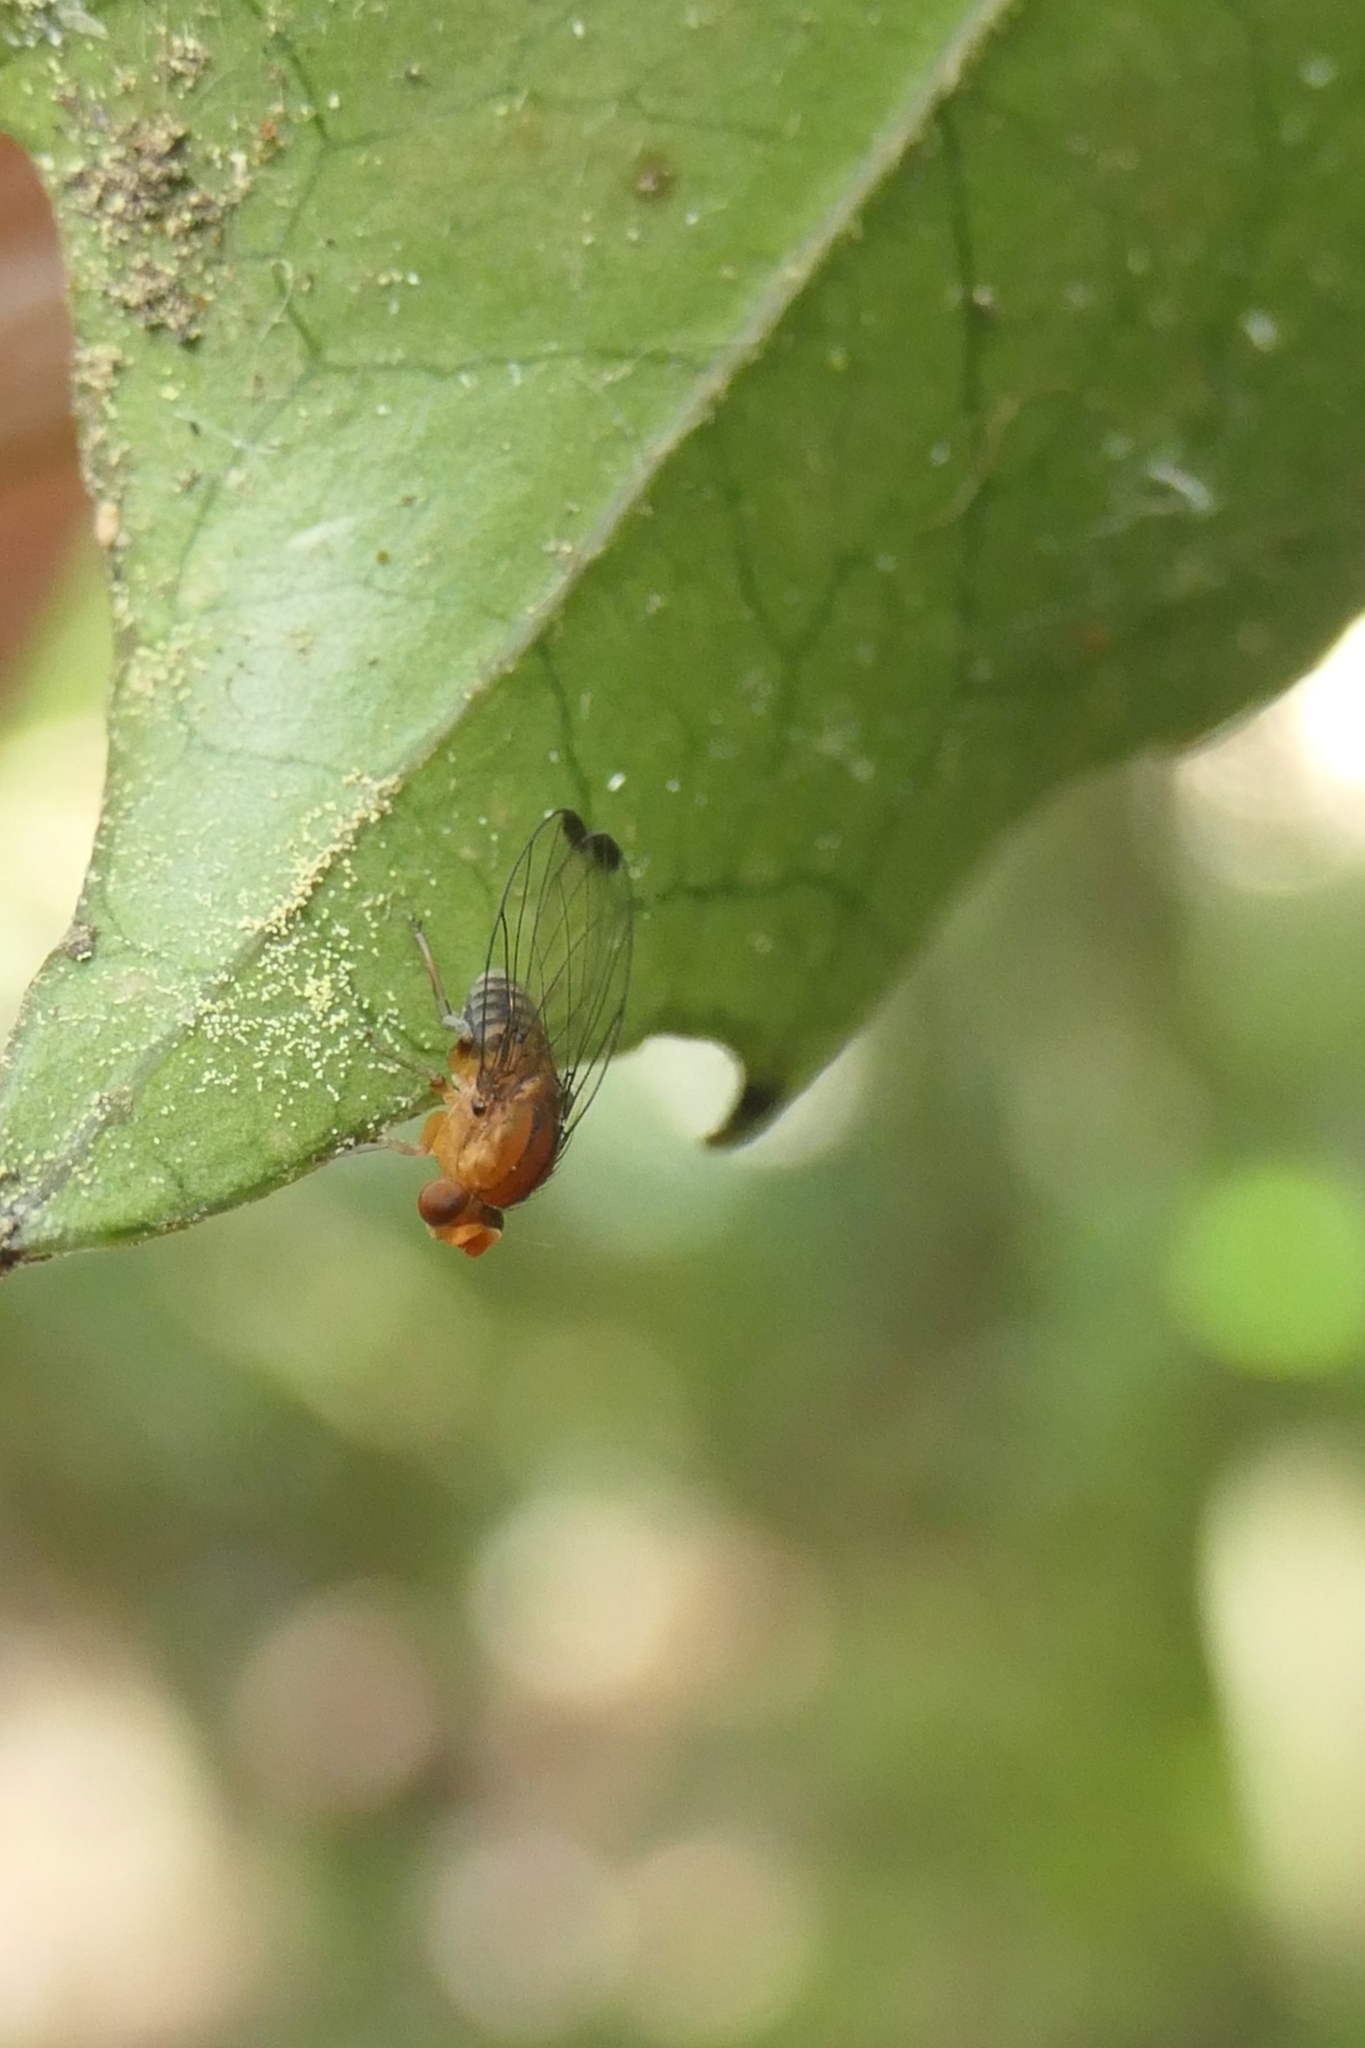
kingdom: Animalia
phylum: Arthropoda
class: Insecta
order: Diptera
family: Phoridae
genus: Sciadocera
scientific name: Sciadocera rufomaculata
